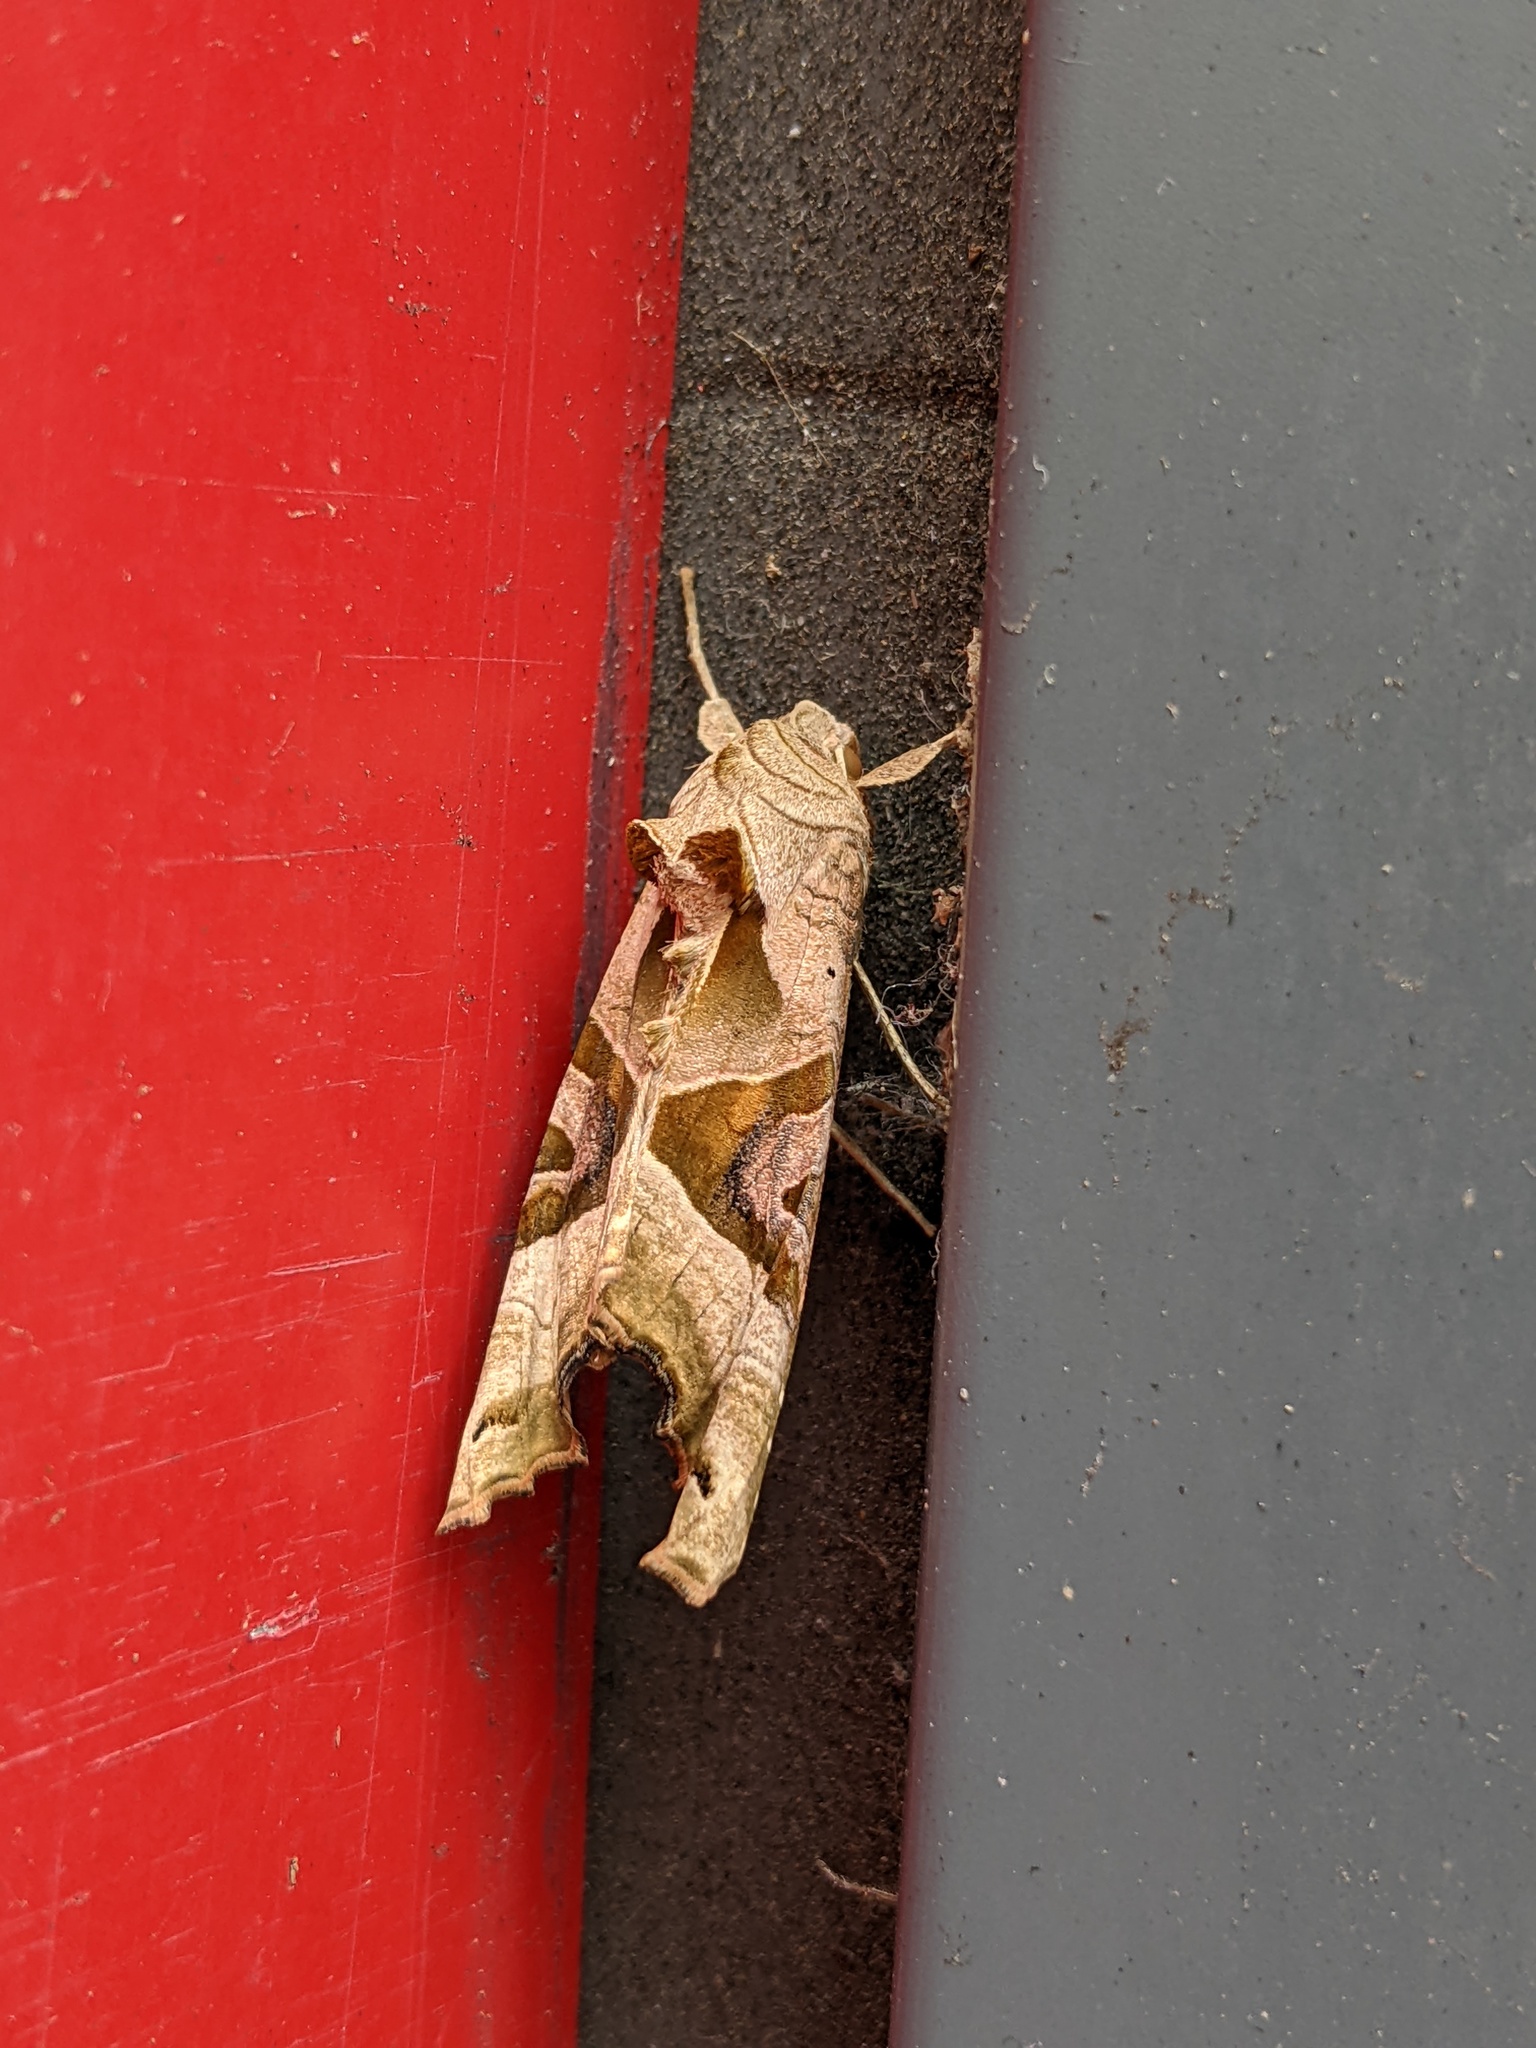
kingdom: Animalia
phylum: Arthropoda
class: Insecta
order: Lepidoptera
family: Noctuidae
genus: Phlogophora
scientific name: Phlogophora meticulosa
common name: Angle shades
